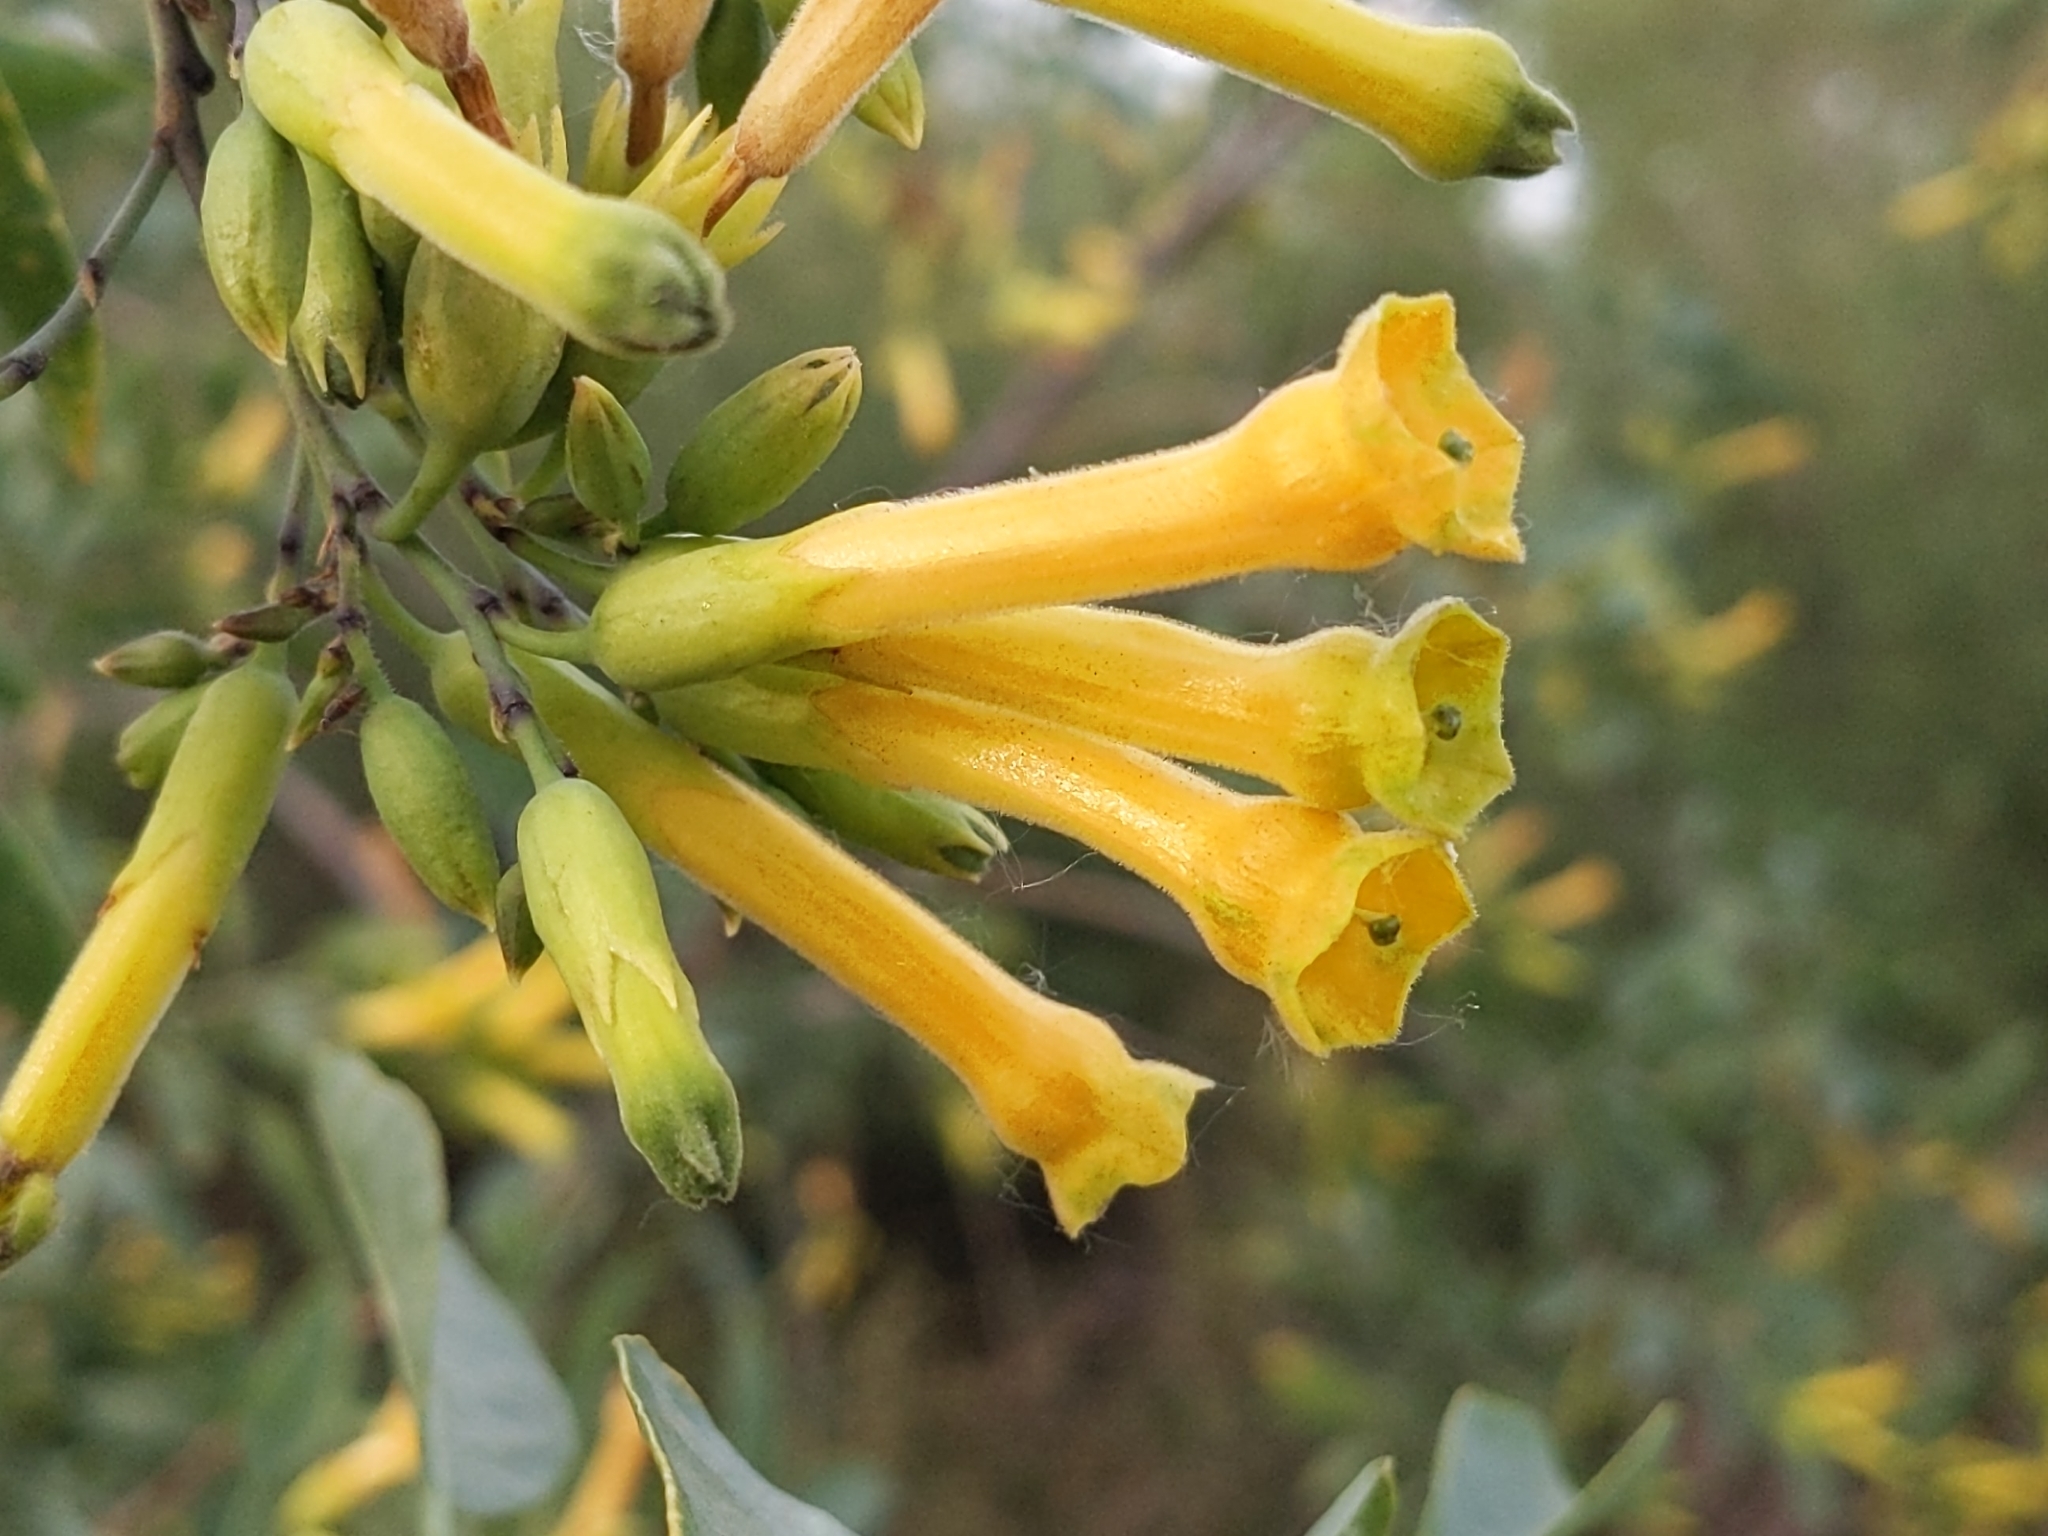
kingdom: Plantae
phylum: Tracheophyta
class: Magnoliopsida
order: Solanales
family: Solanaceae
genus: Nicotiana
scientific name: Nicotiana glauca
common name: Tree tobacco
